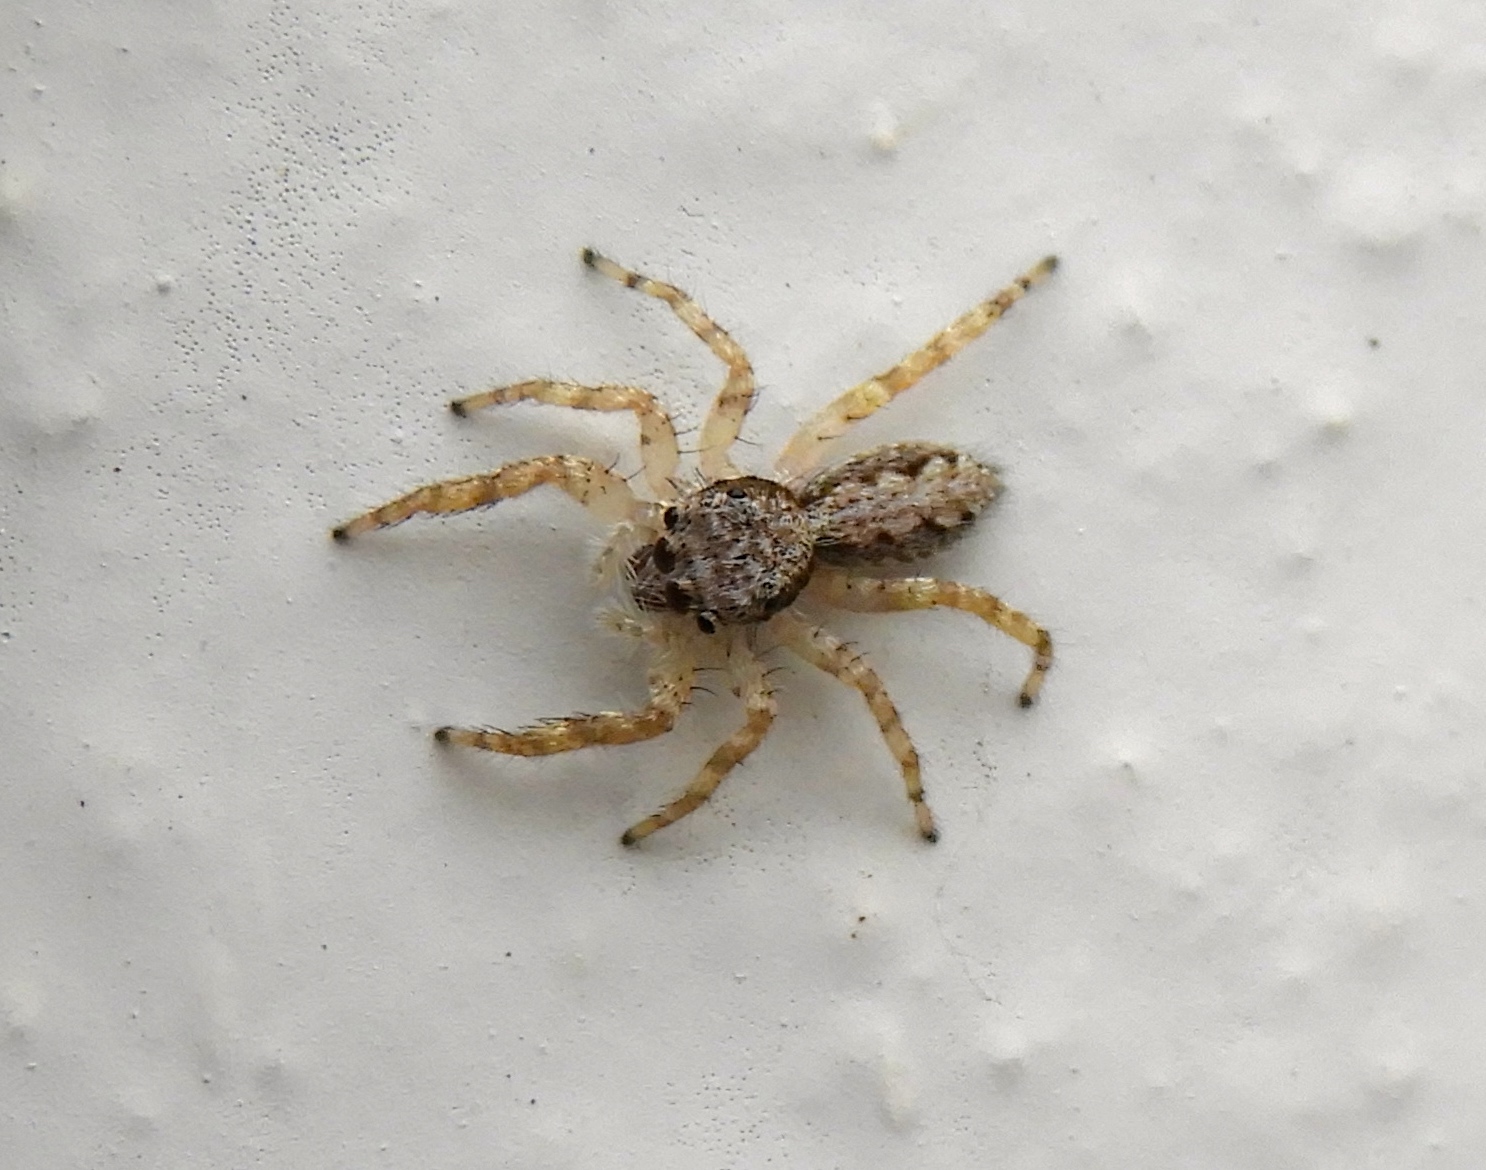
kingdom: Animalia
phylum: Arthropoda
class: Arachnida
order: Araneae
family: Salticidae
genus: Balmaceda
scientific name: Balmaceda
